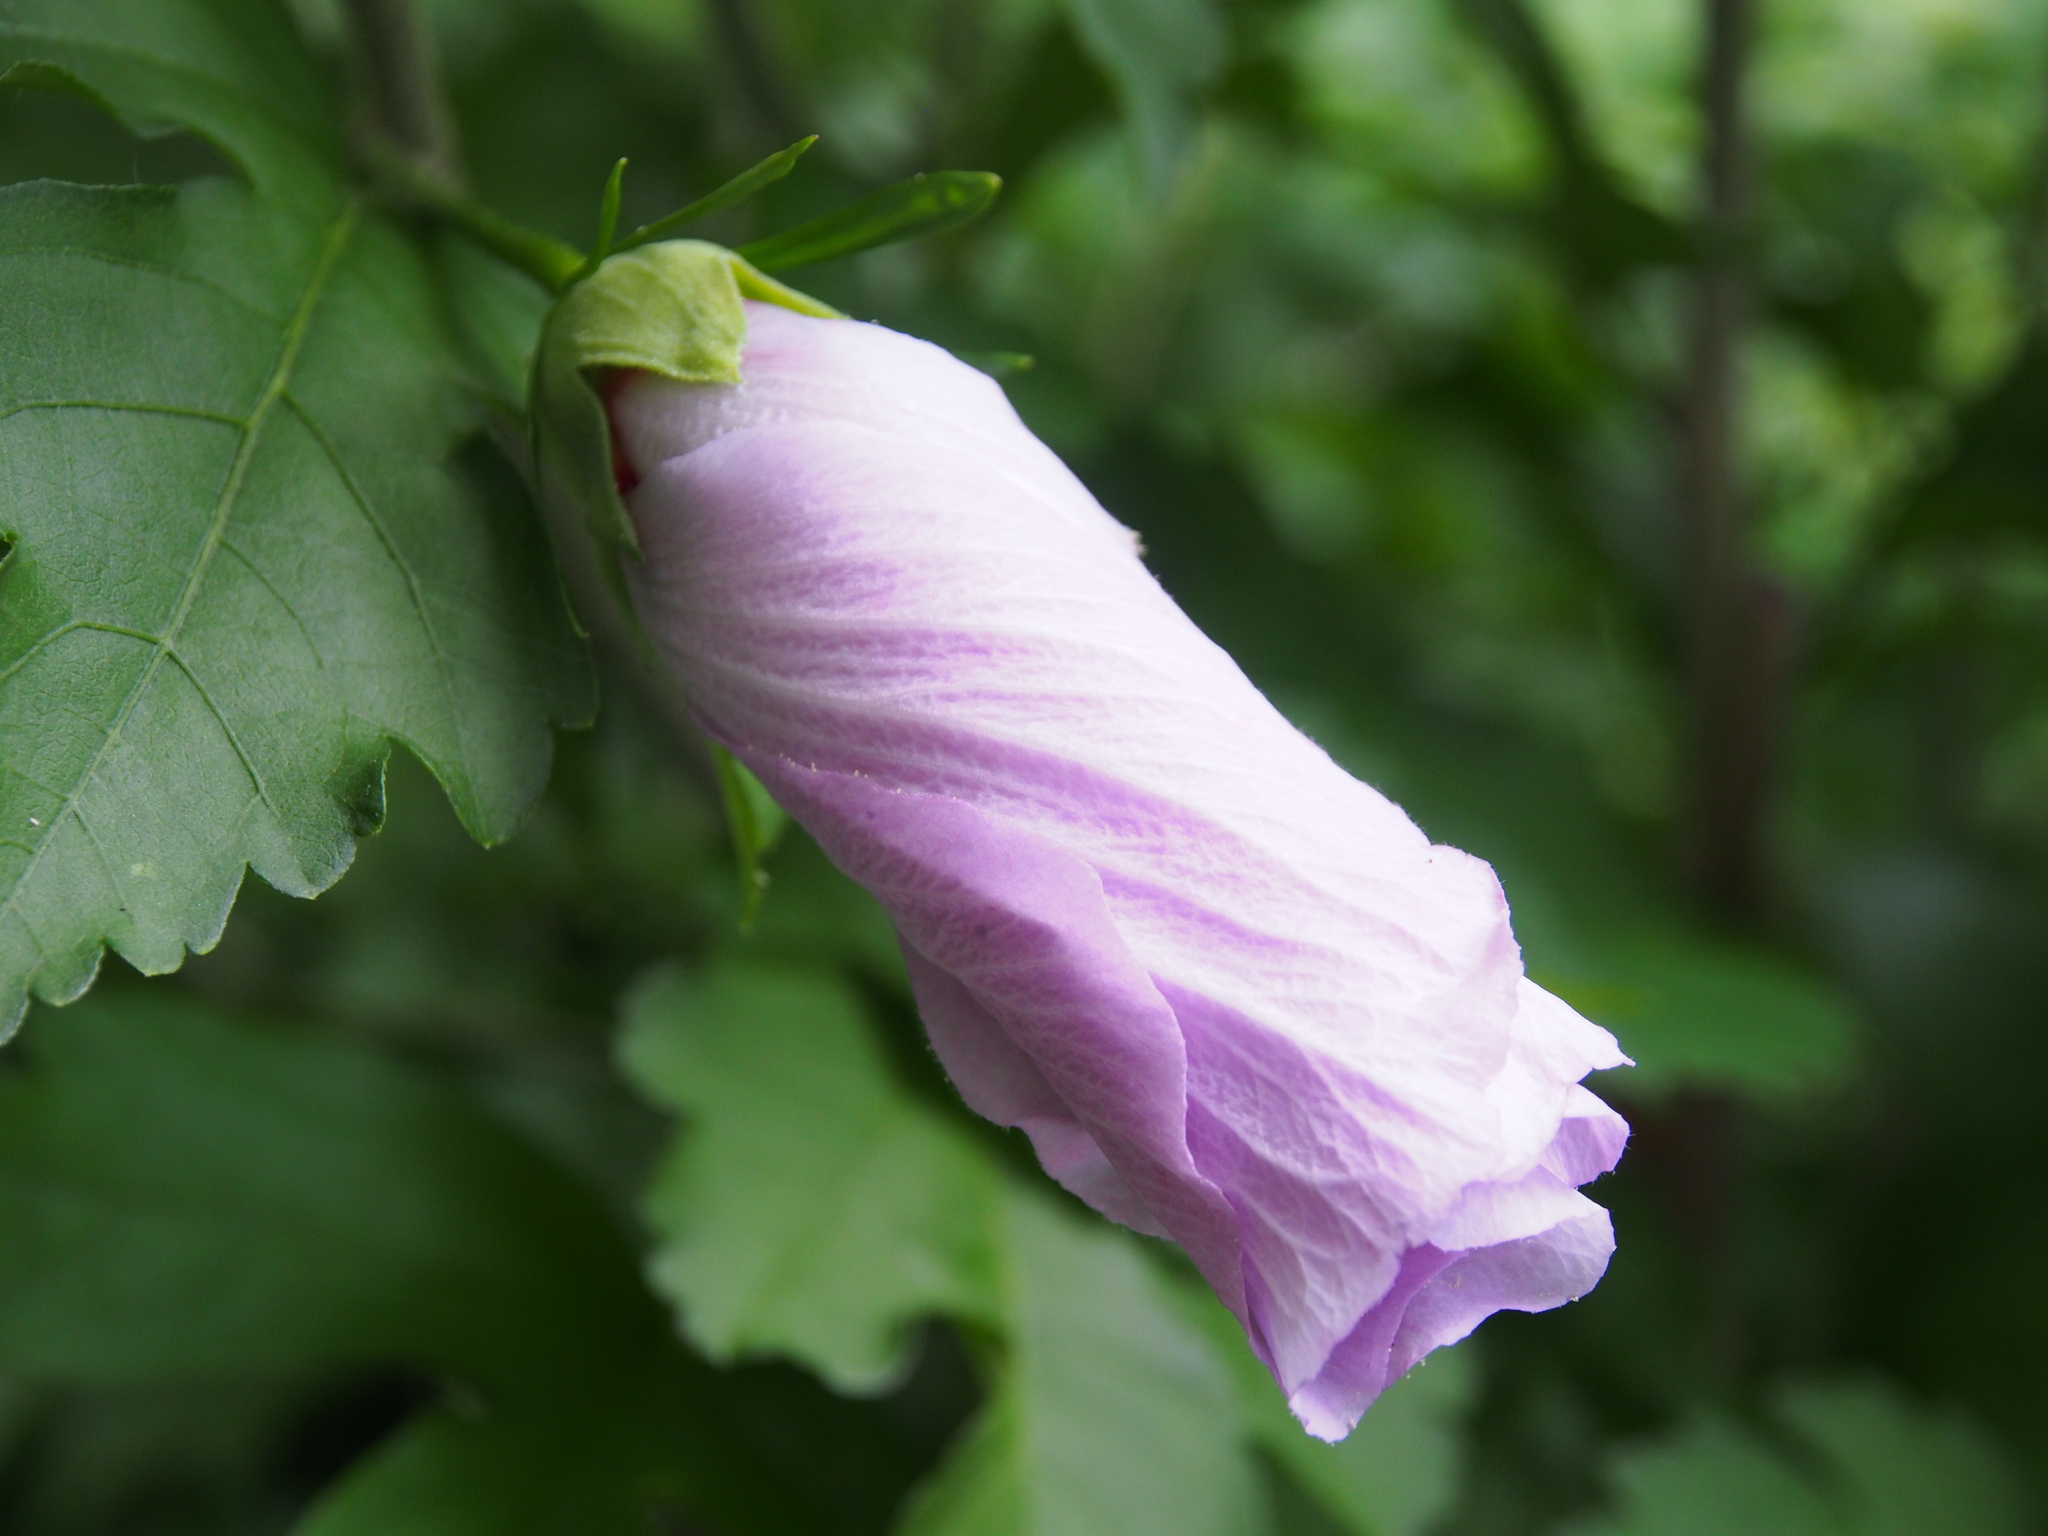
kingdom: Plantae
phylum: Tracheophyta
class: Magnoliopsida
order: Malvales
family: Malvaceae
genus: Hibiscus
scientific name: Hibiscus syriacus
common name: Syrian ketmia
